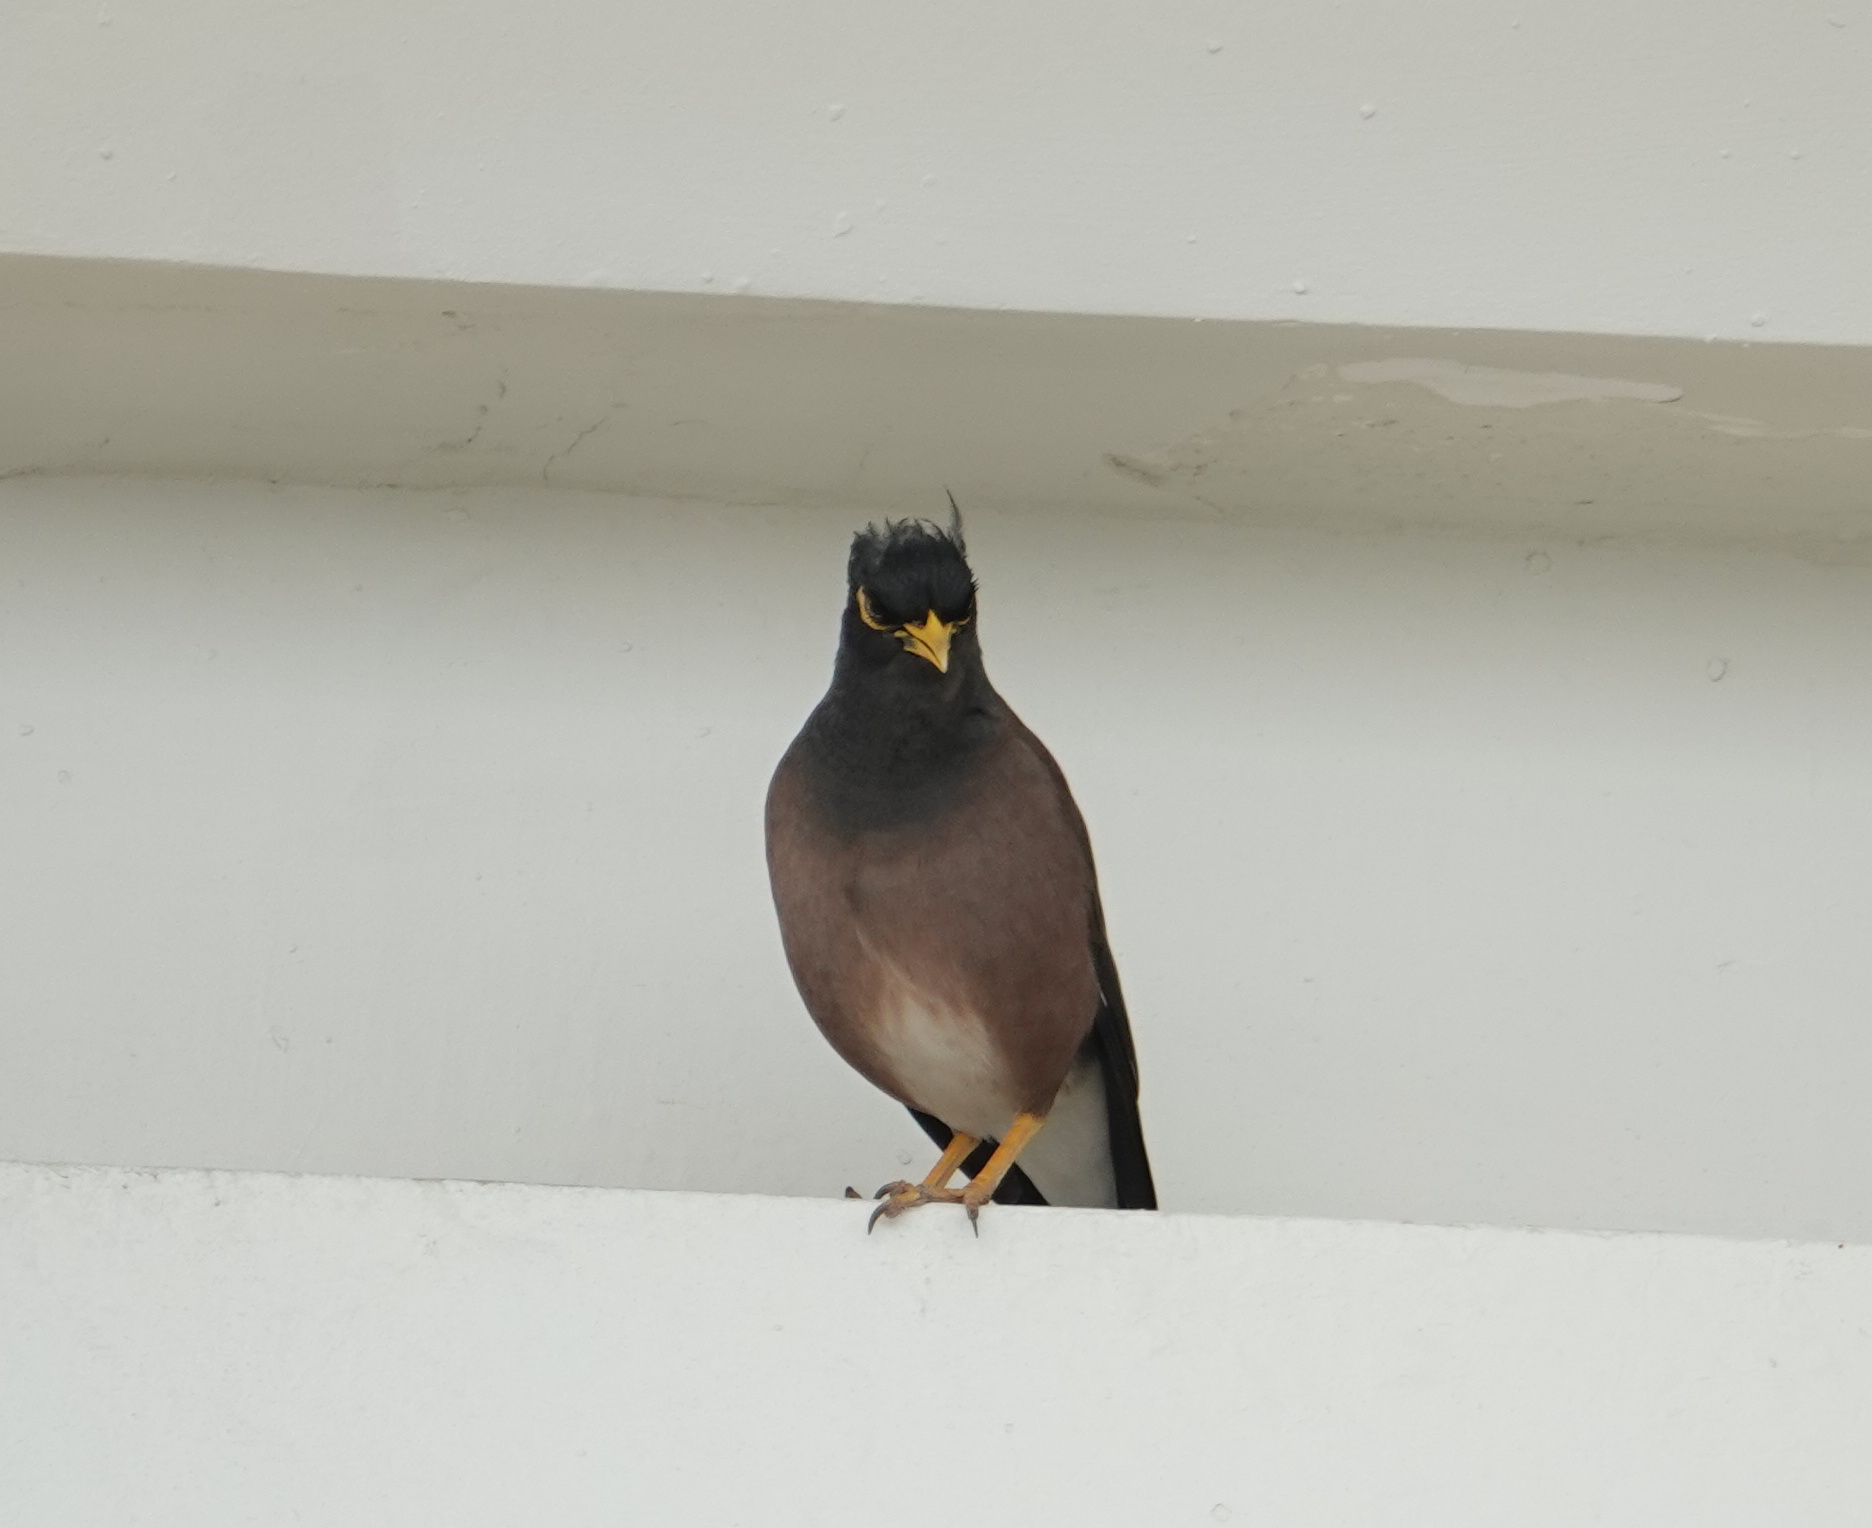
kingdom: Animalia
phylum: Chordata
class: Aves
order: Passeriformes
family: Sturnidae
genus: Acridotheres
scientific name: Acridotheres tristis
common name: Common myna
